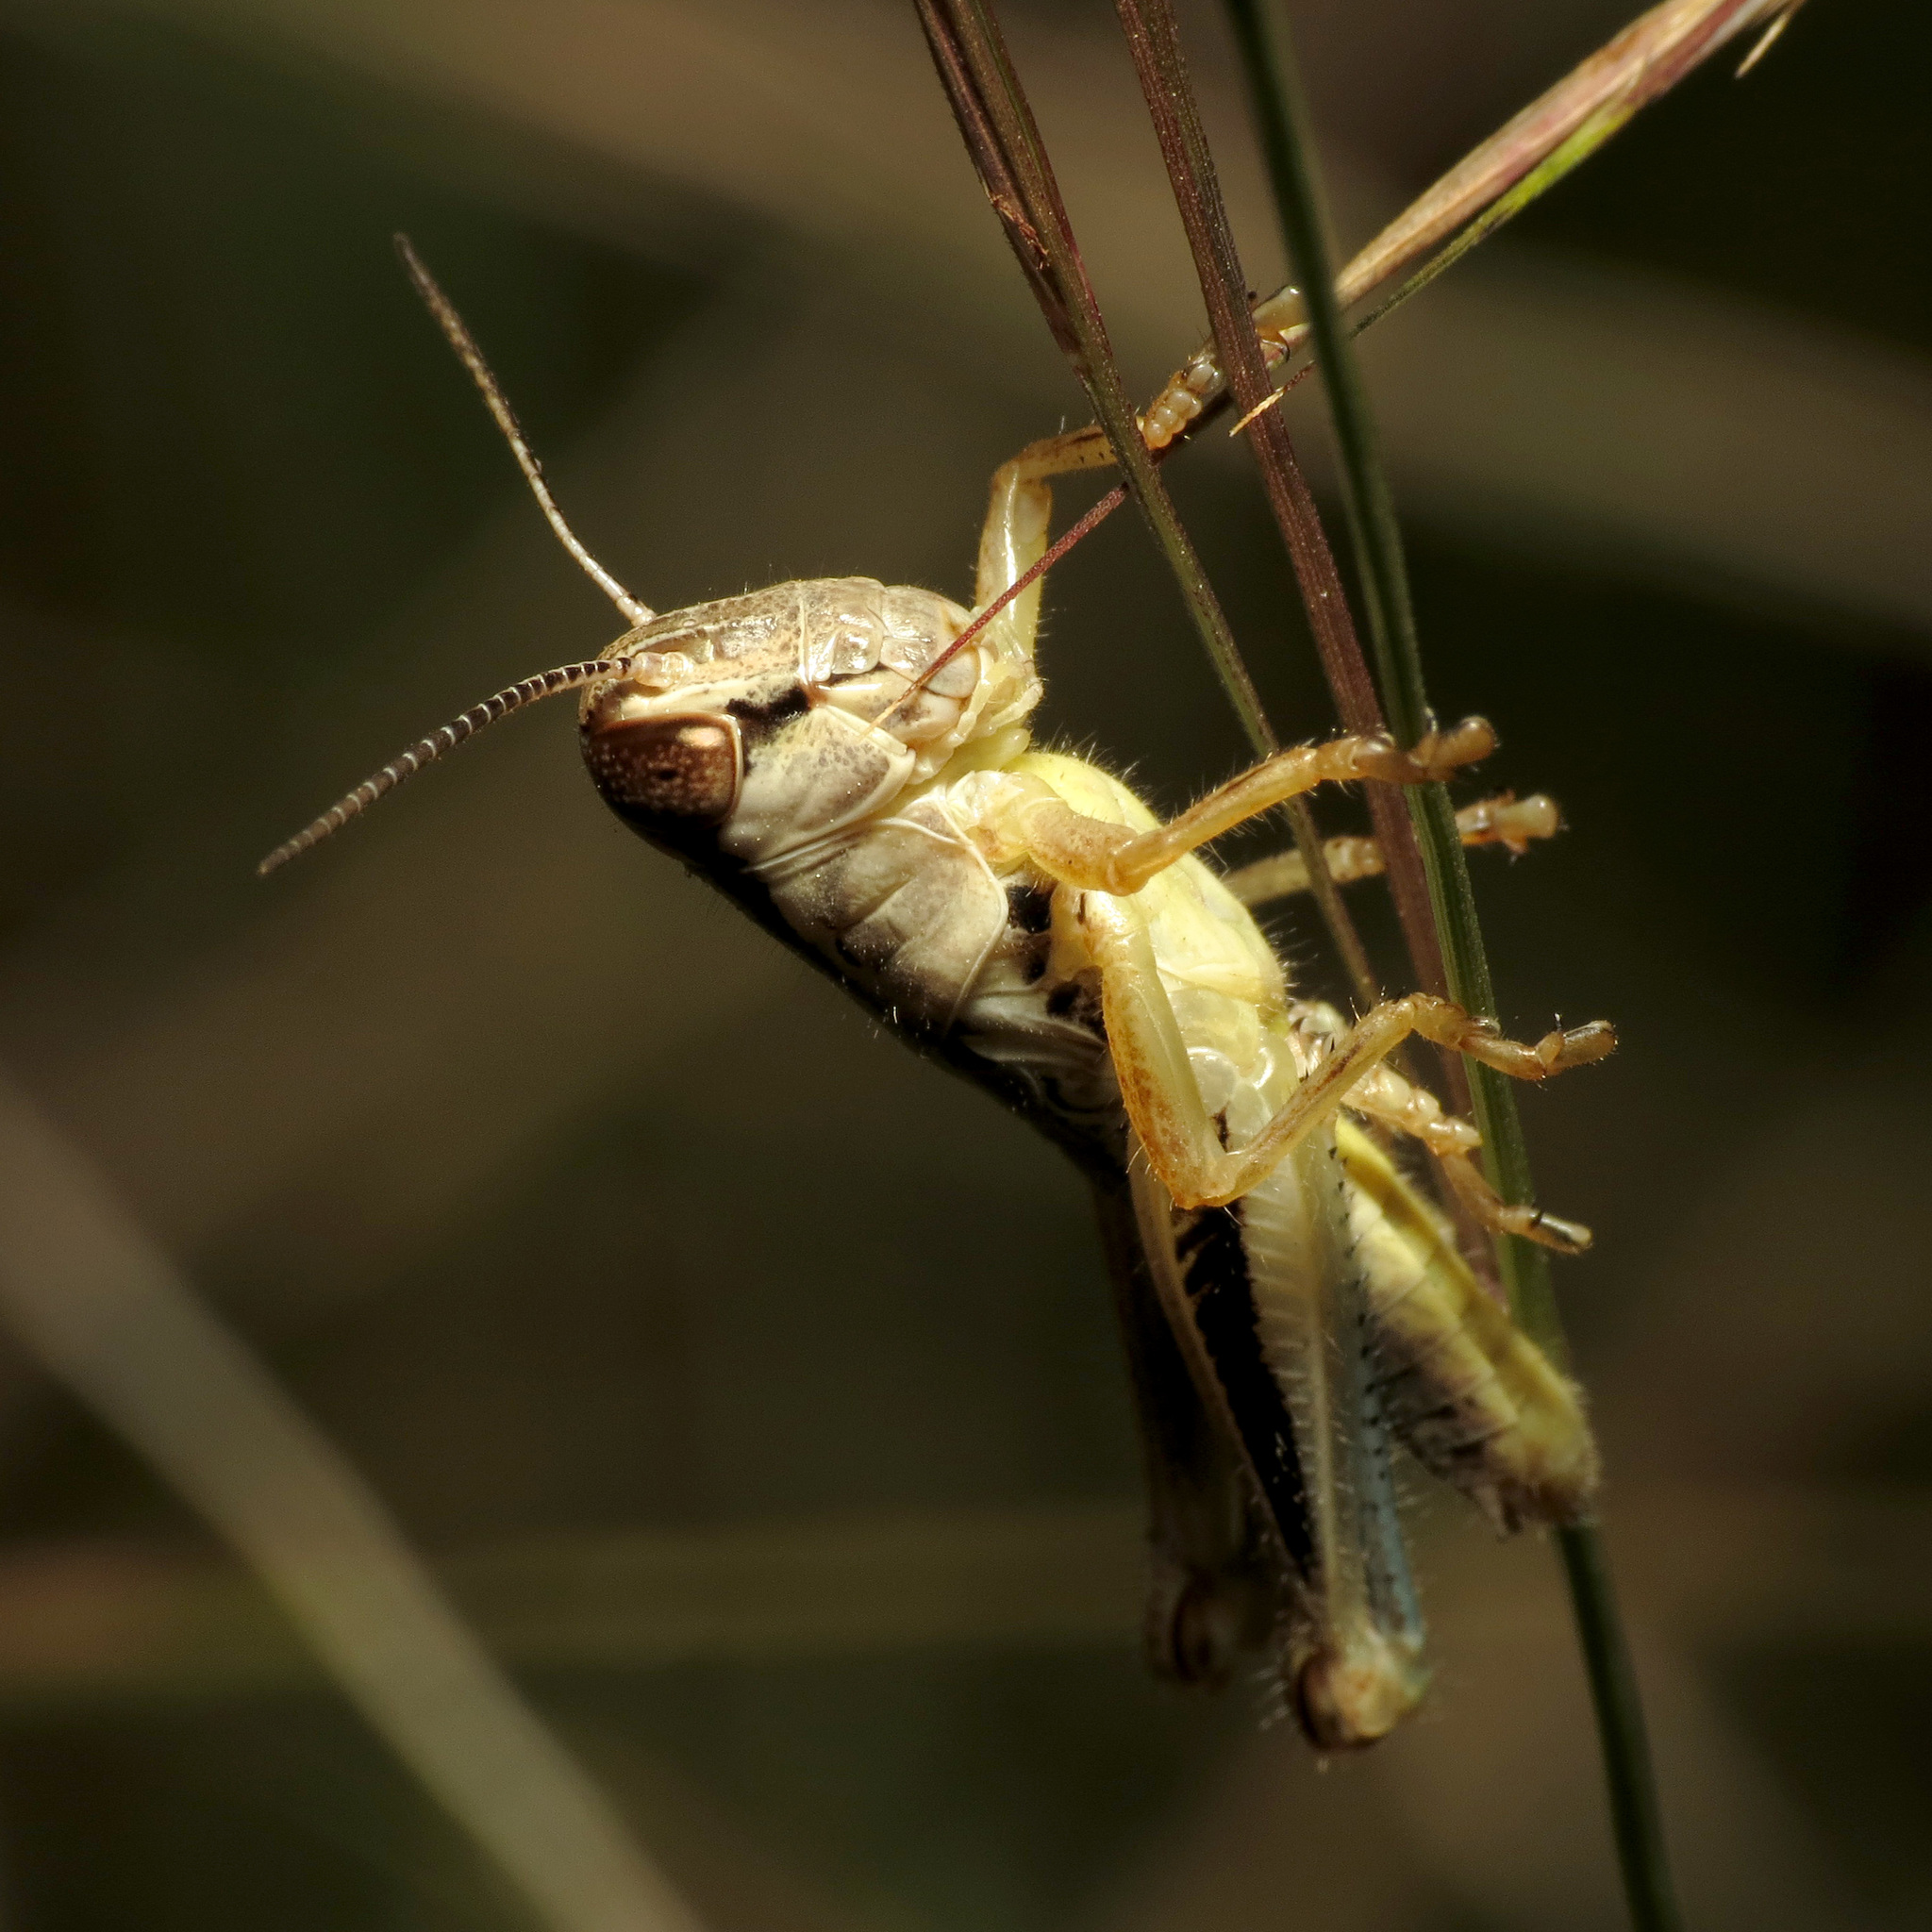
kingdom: Animalia
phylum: Arthropoda
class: Insecta
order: Orthoptera
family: Acrididae
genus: Phoetaliotes
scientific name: Phoetaliotes nebrascensis
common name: Large-headed grasshopper
